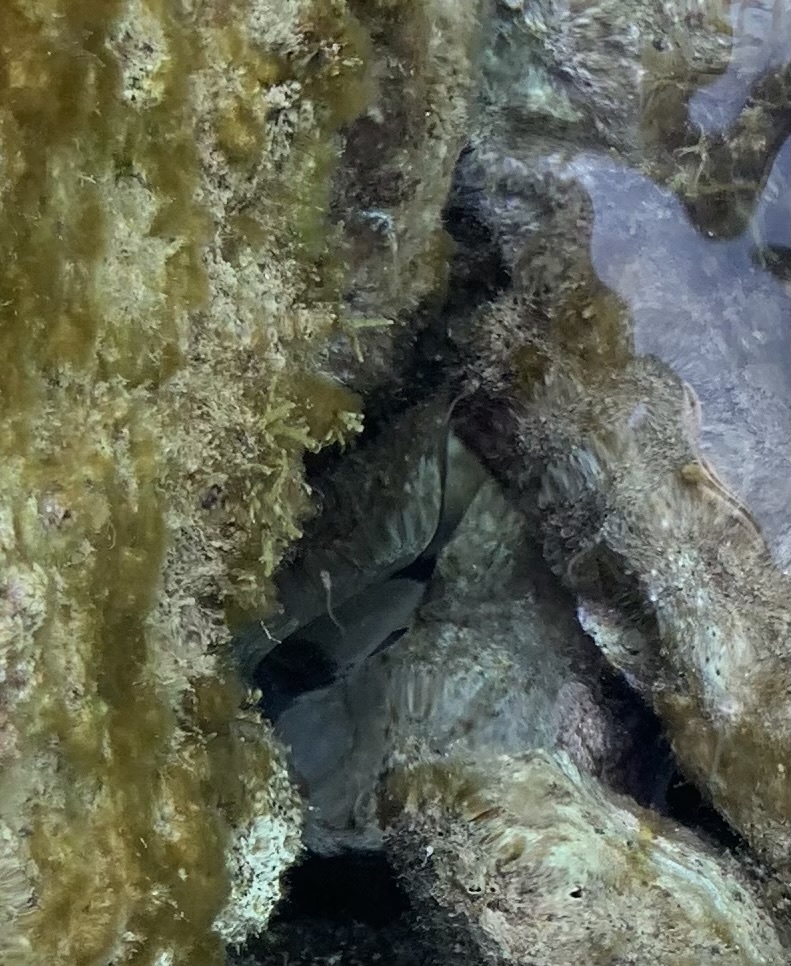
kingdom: Animalia
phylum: Chordata
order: Perciformes
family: Sparidae
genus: Diplodus
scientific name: Diplodus vulgaris
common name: Common two-banded seabream
